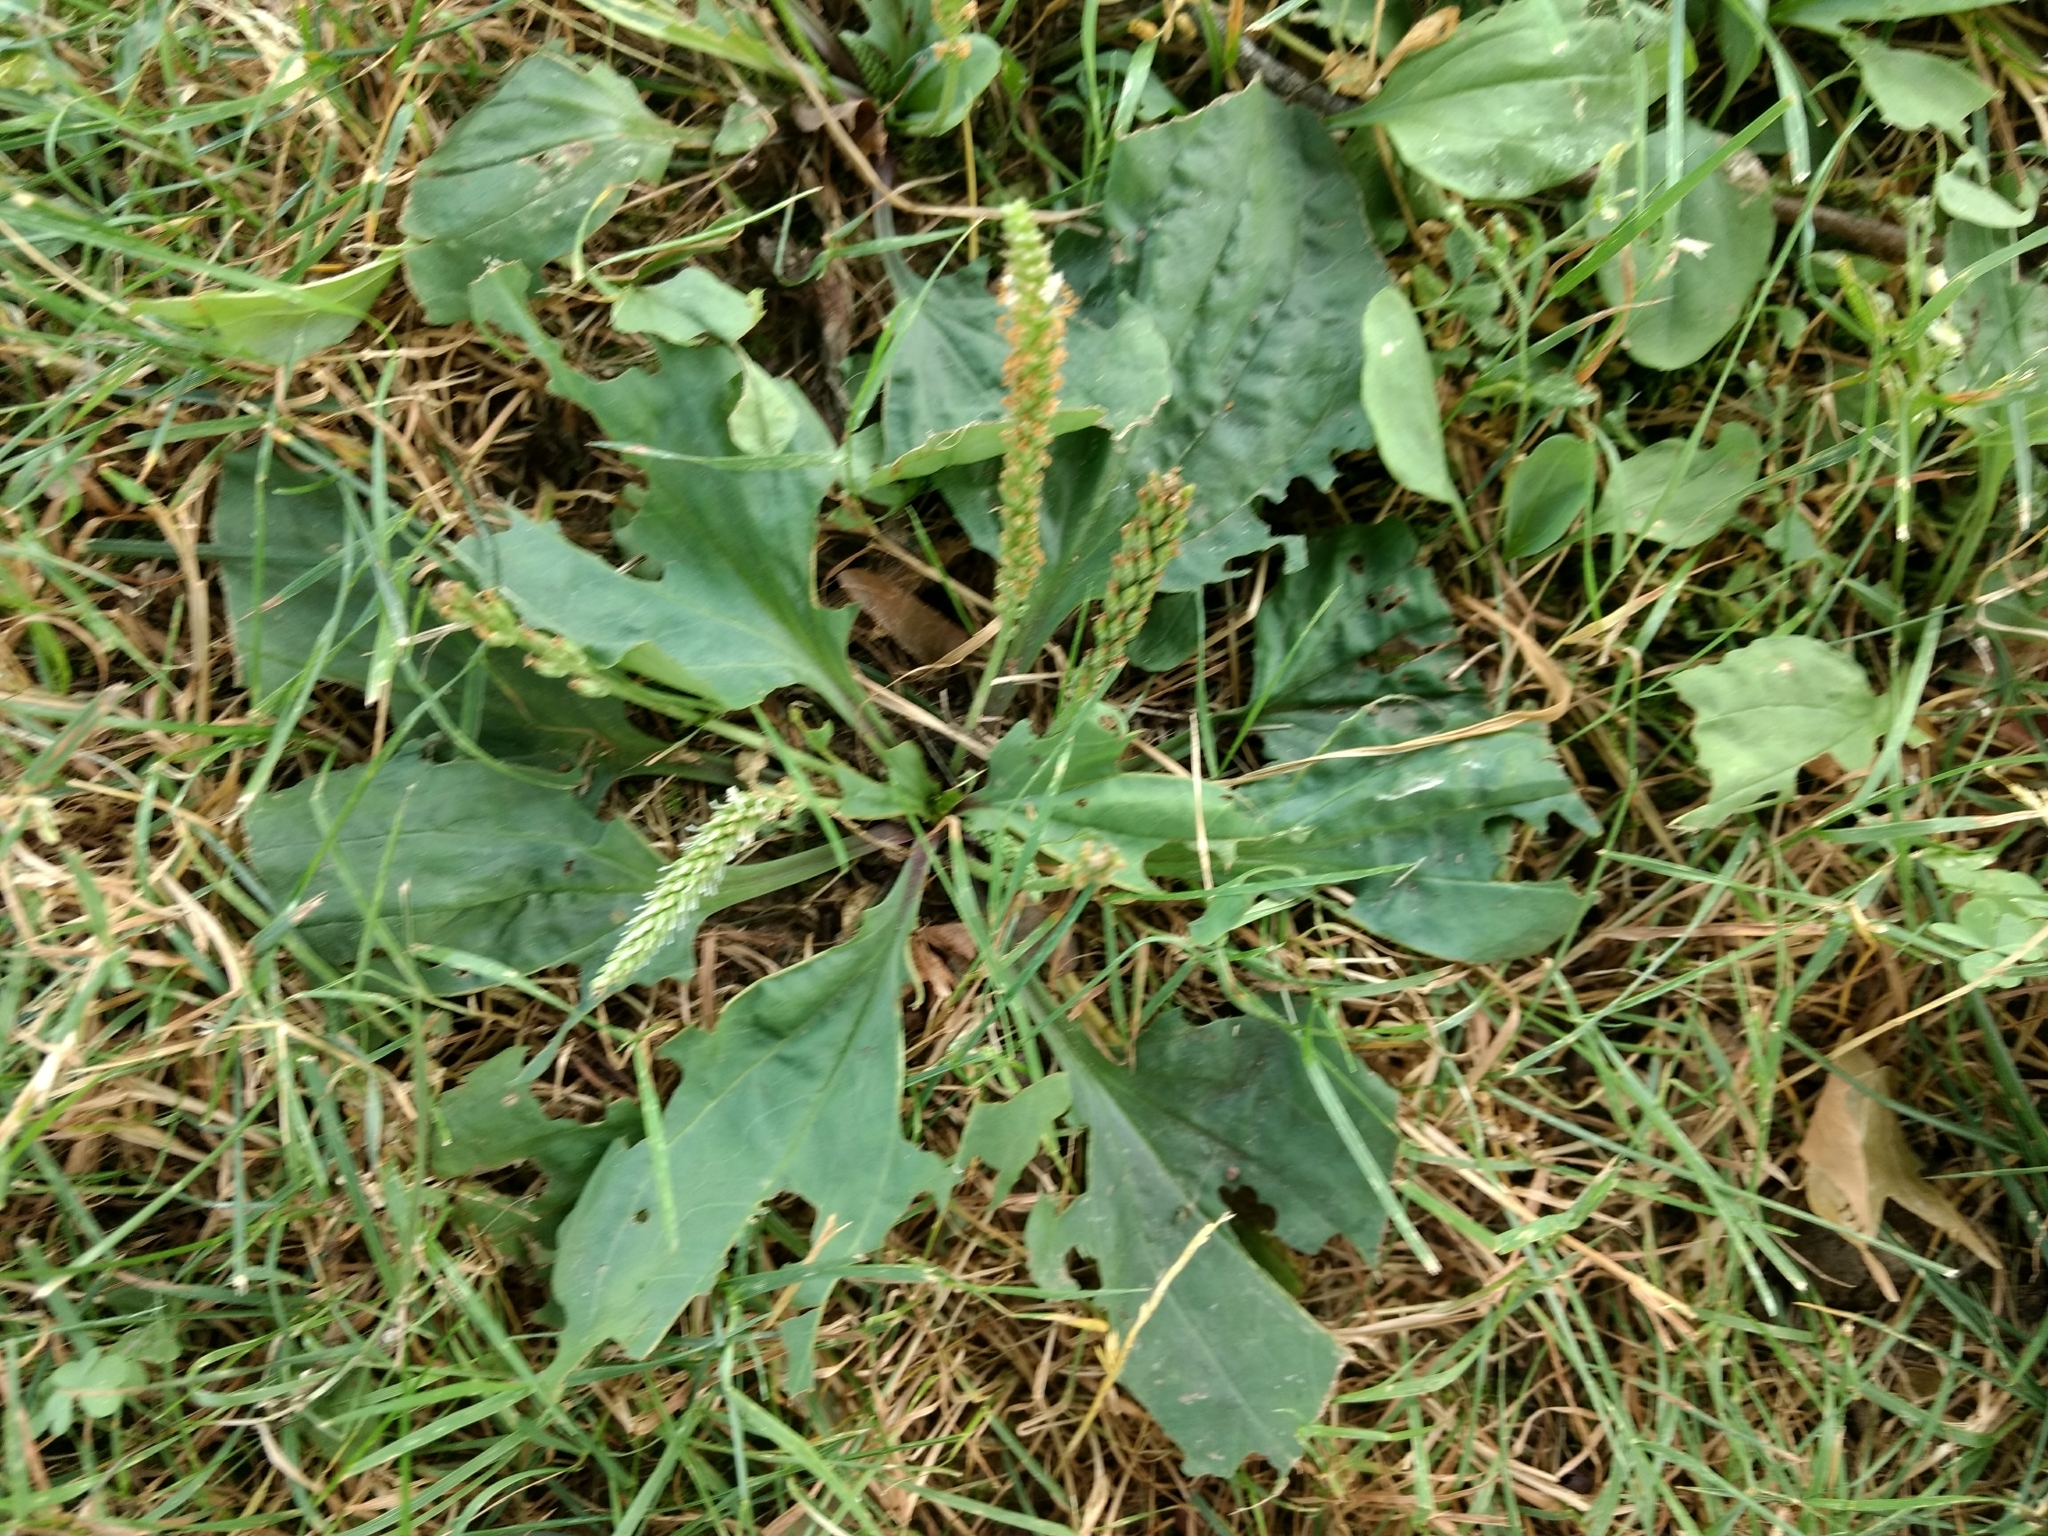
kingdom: Plantae
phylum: Tracheophyta
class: Magnoliopsida
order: Lamiales
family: Plantaginaceae
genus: Plantago
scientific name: Plantago rugelii
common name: American plantain
